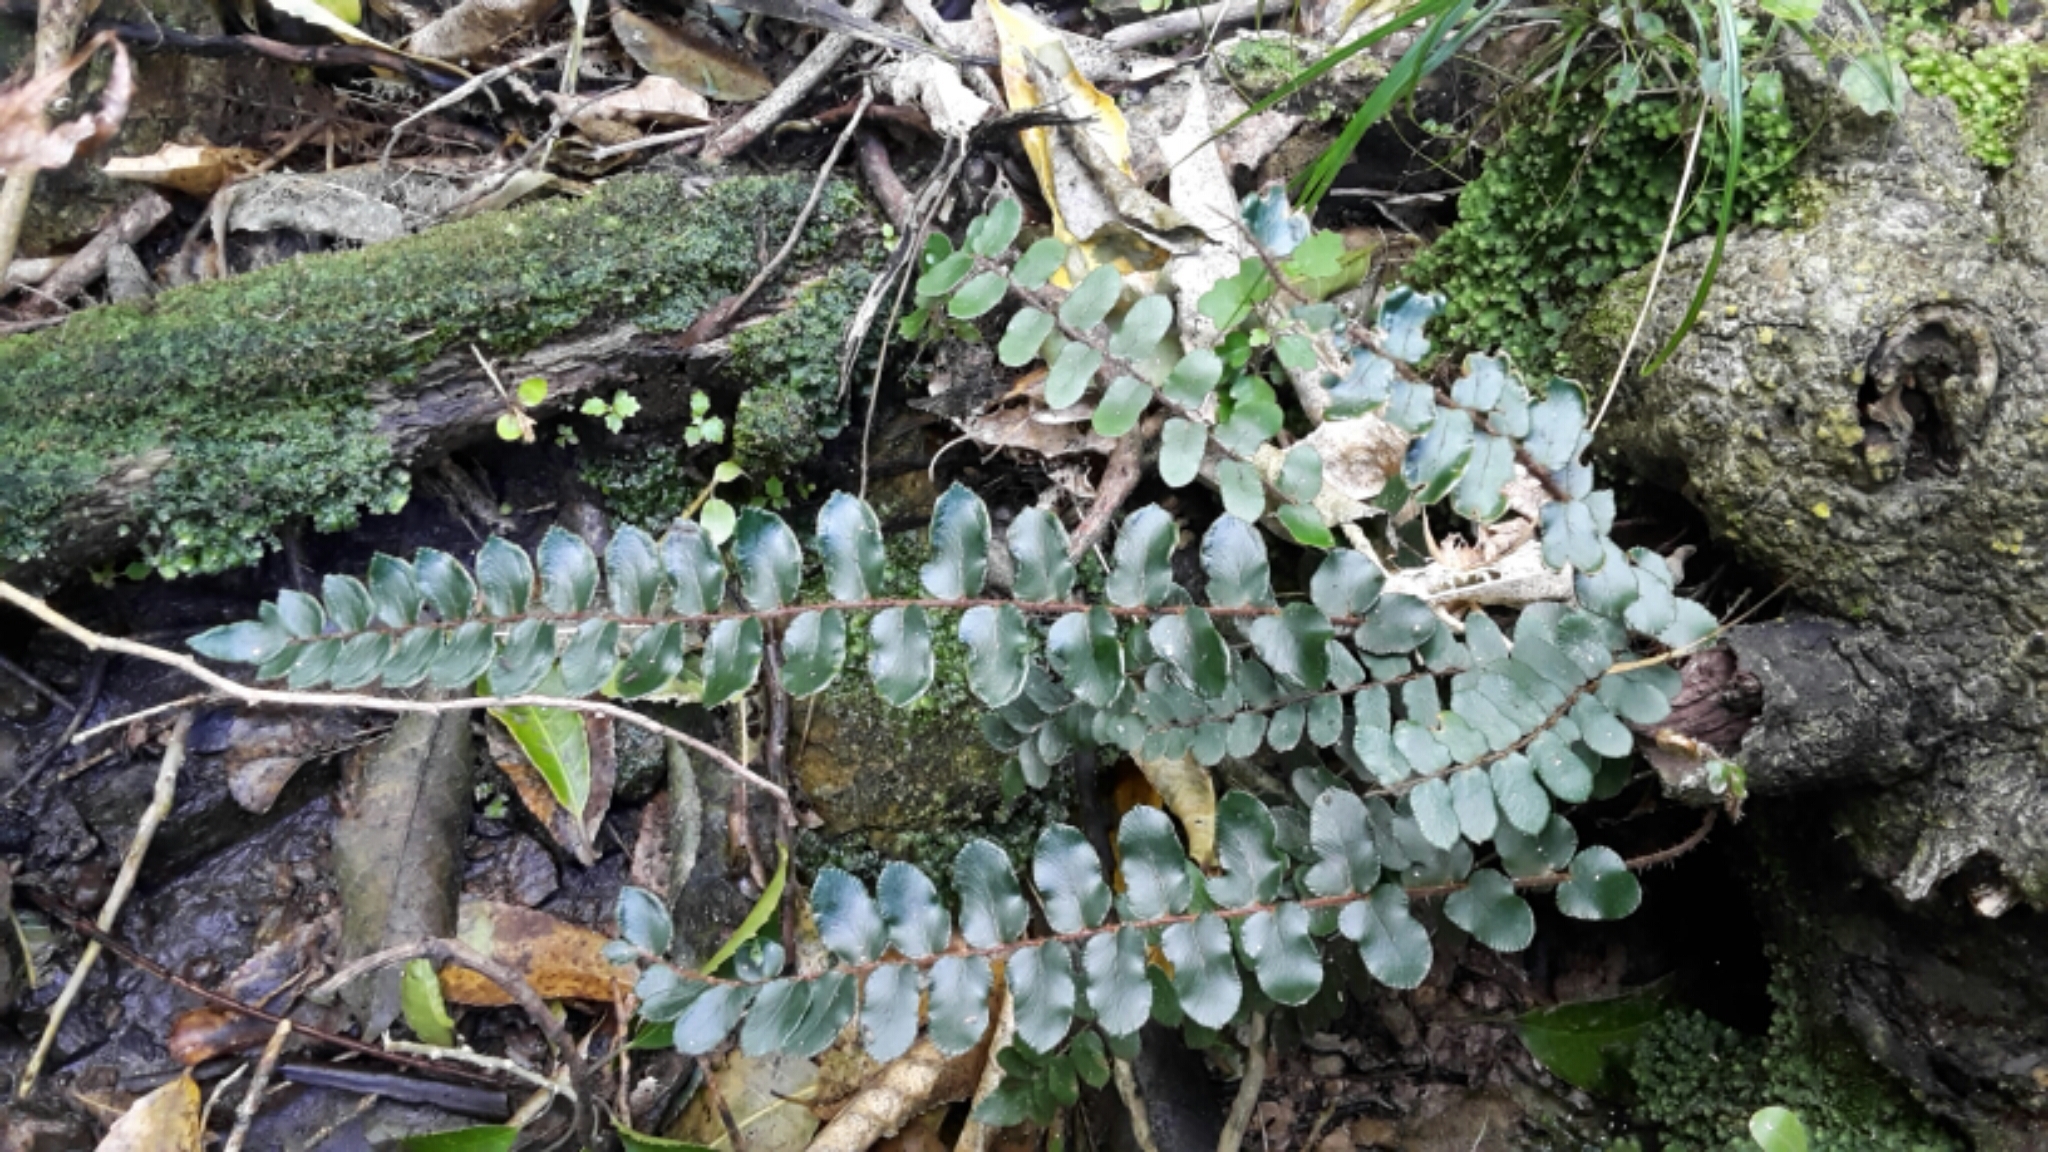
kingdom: Plantae
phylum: Tracheophyta
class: Polypodiopsida
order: Polypodiales
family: Pteridaceae
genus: Pellaea
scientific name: Pellaea rotundifolia
